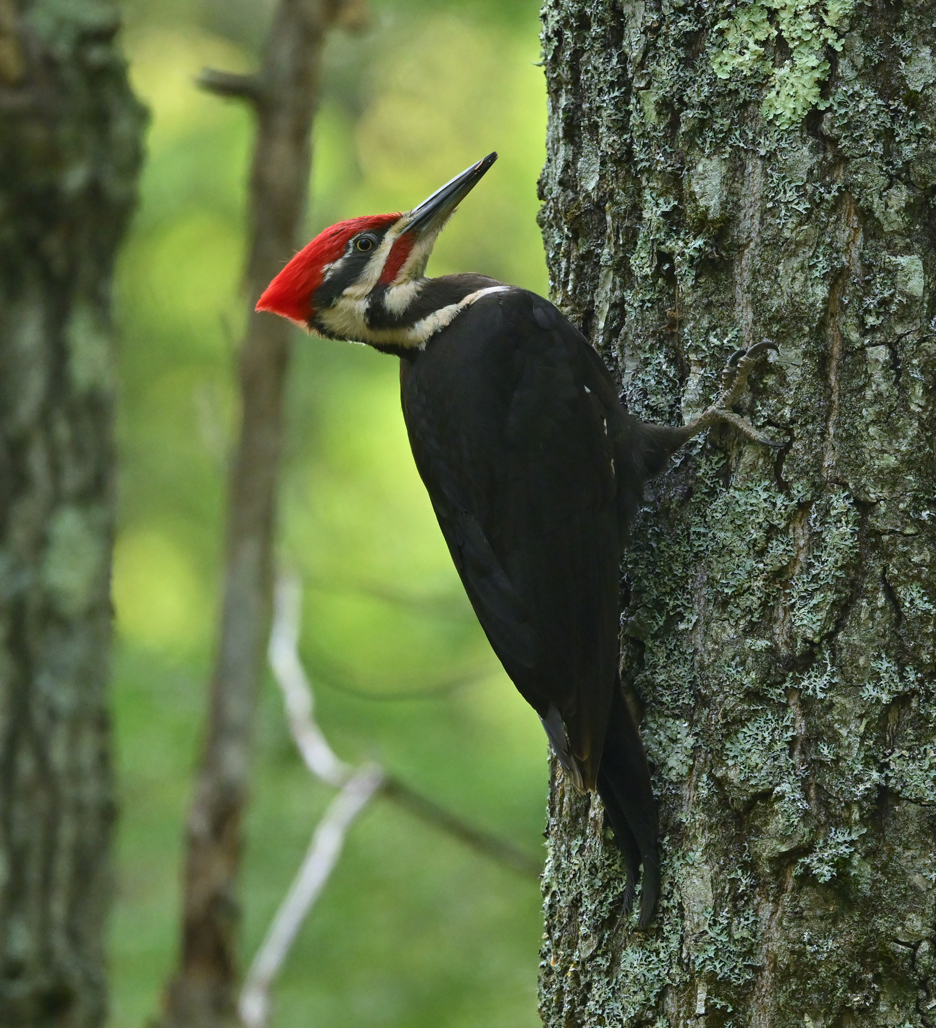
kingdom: Animalia
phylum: Chordata
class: Aves
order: Piciformes
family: Picidae
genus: Dryocopus
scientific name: Dryocopus pileatus
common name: Pileated woodpecker
